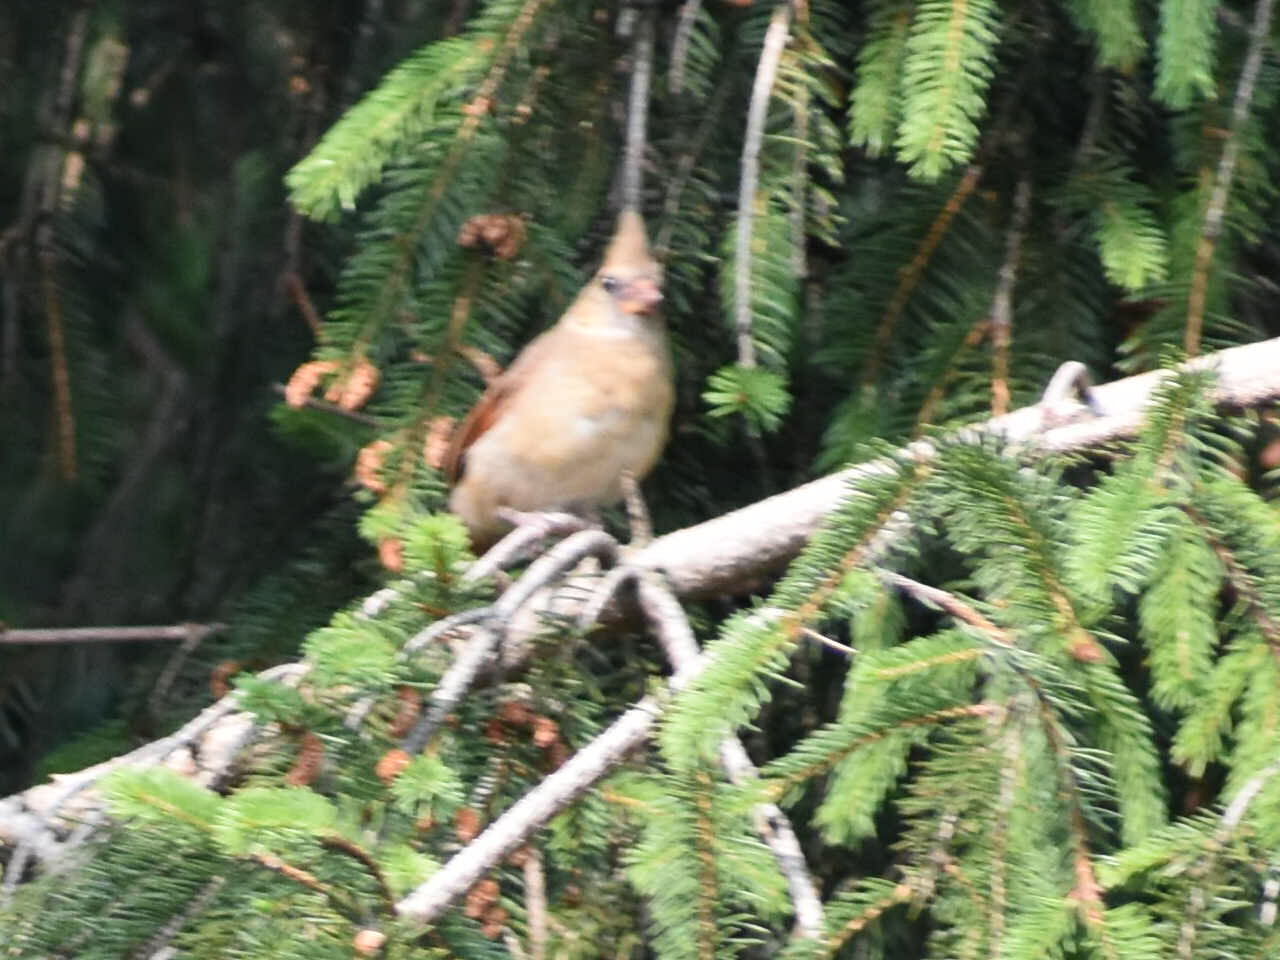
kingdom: Animalia
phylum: Chordata
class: Aves
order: Passeriformes
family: Cardinalidae
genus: Cardinalis
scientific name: Cardinalis cardinalis
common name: Northern cardinal
